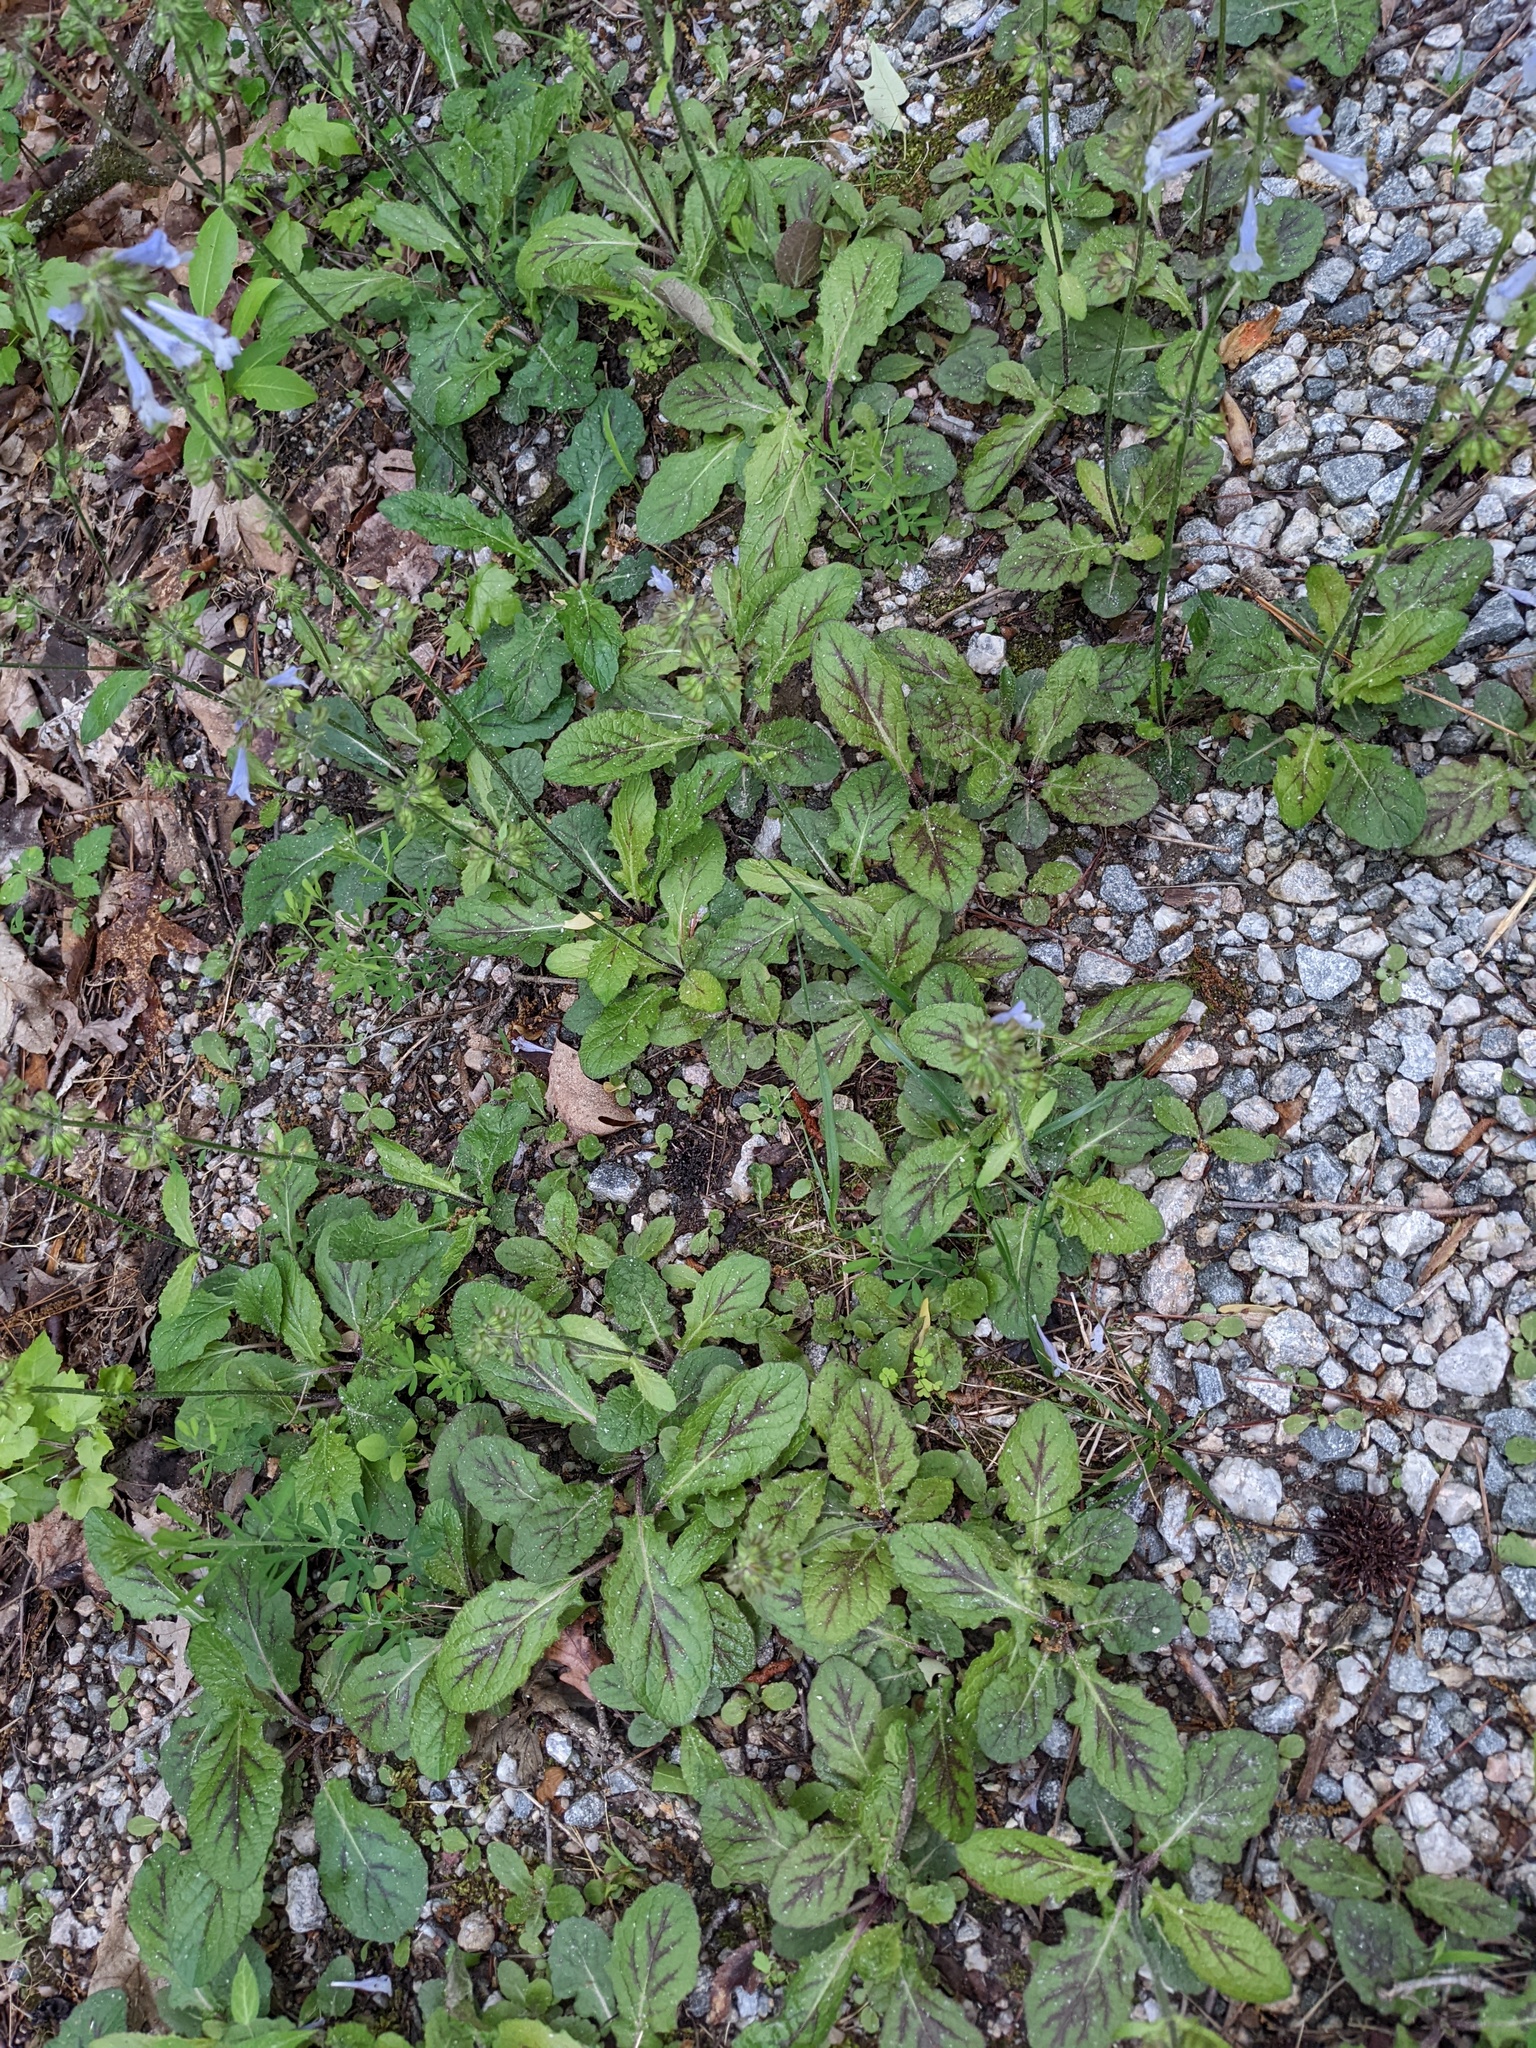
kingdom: Plantae
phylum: Tracheophyta
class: Magnoliopsida
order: Lamiales
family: Lamiaceae
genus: Salvia
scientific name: Salvia lyrata
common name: Cancerweed
